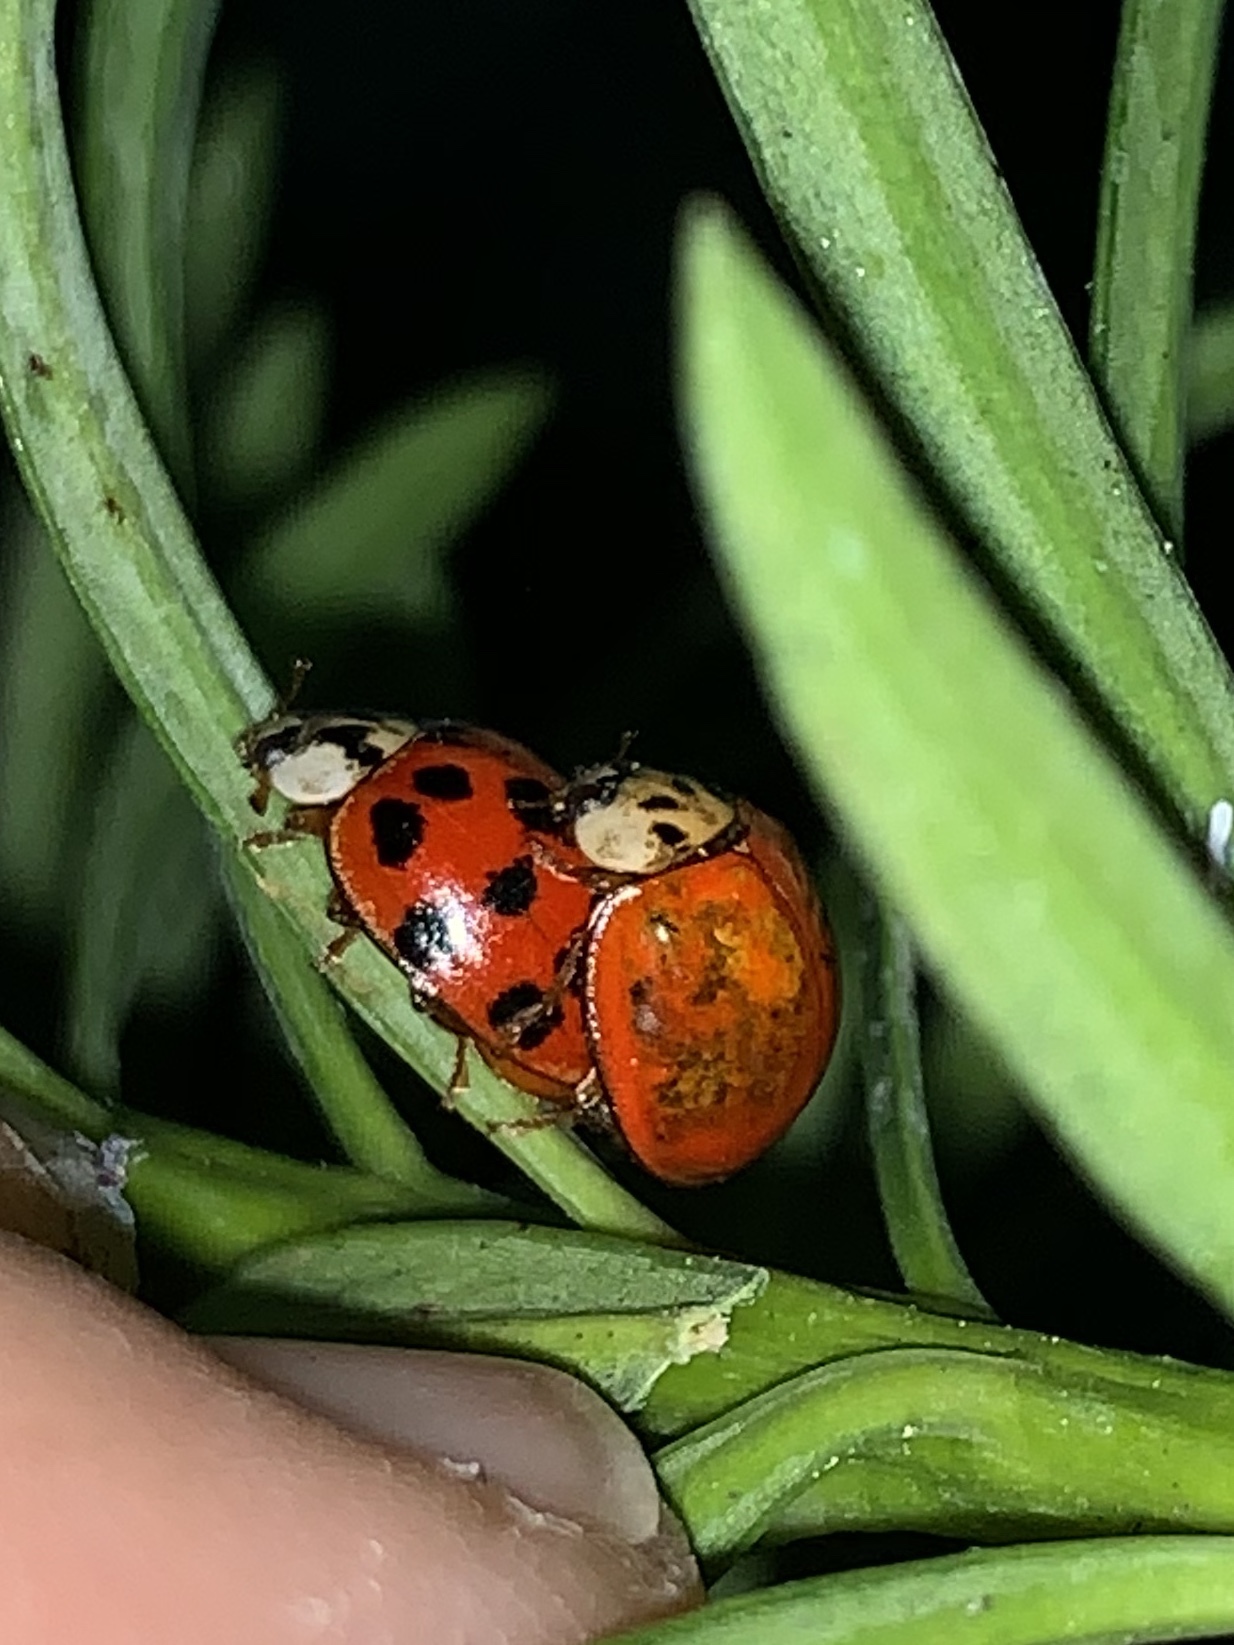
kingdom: Animalia
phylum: Arthropoda
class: Insecta
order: Coleoptera
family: Coccinellidae
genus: Harmonia
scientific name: Harmonia axyridis
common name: Harlequin ladybird
